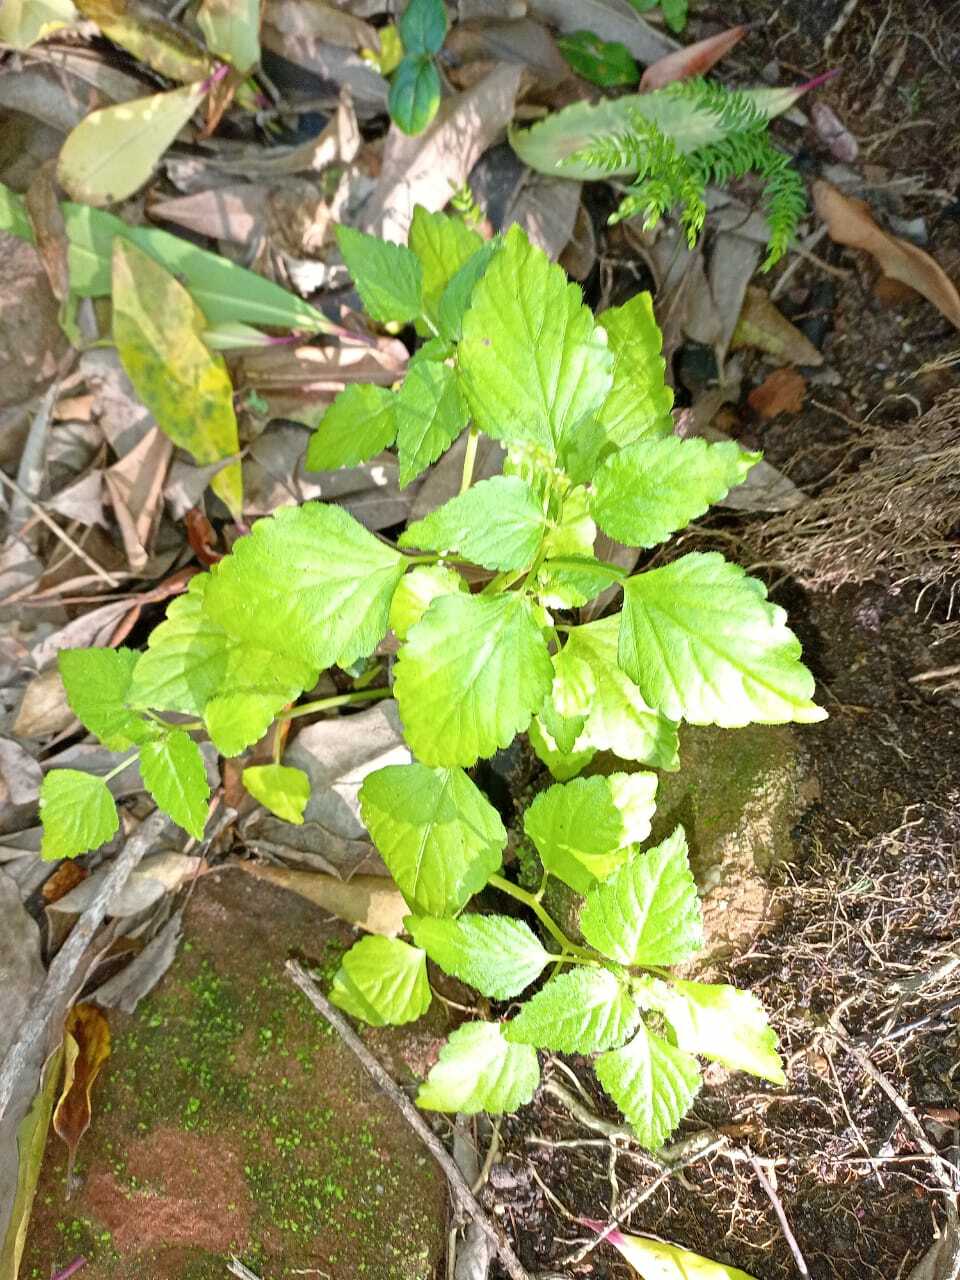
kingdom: Plantae
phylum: Tracheophyta
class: Magnoliopsida
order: Malpighiales
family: Euphorbiaceae
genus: Leidesia
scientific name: Leidesia procumbens
